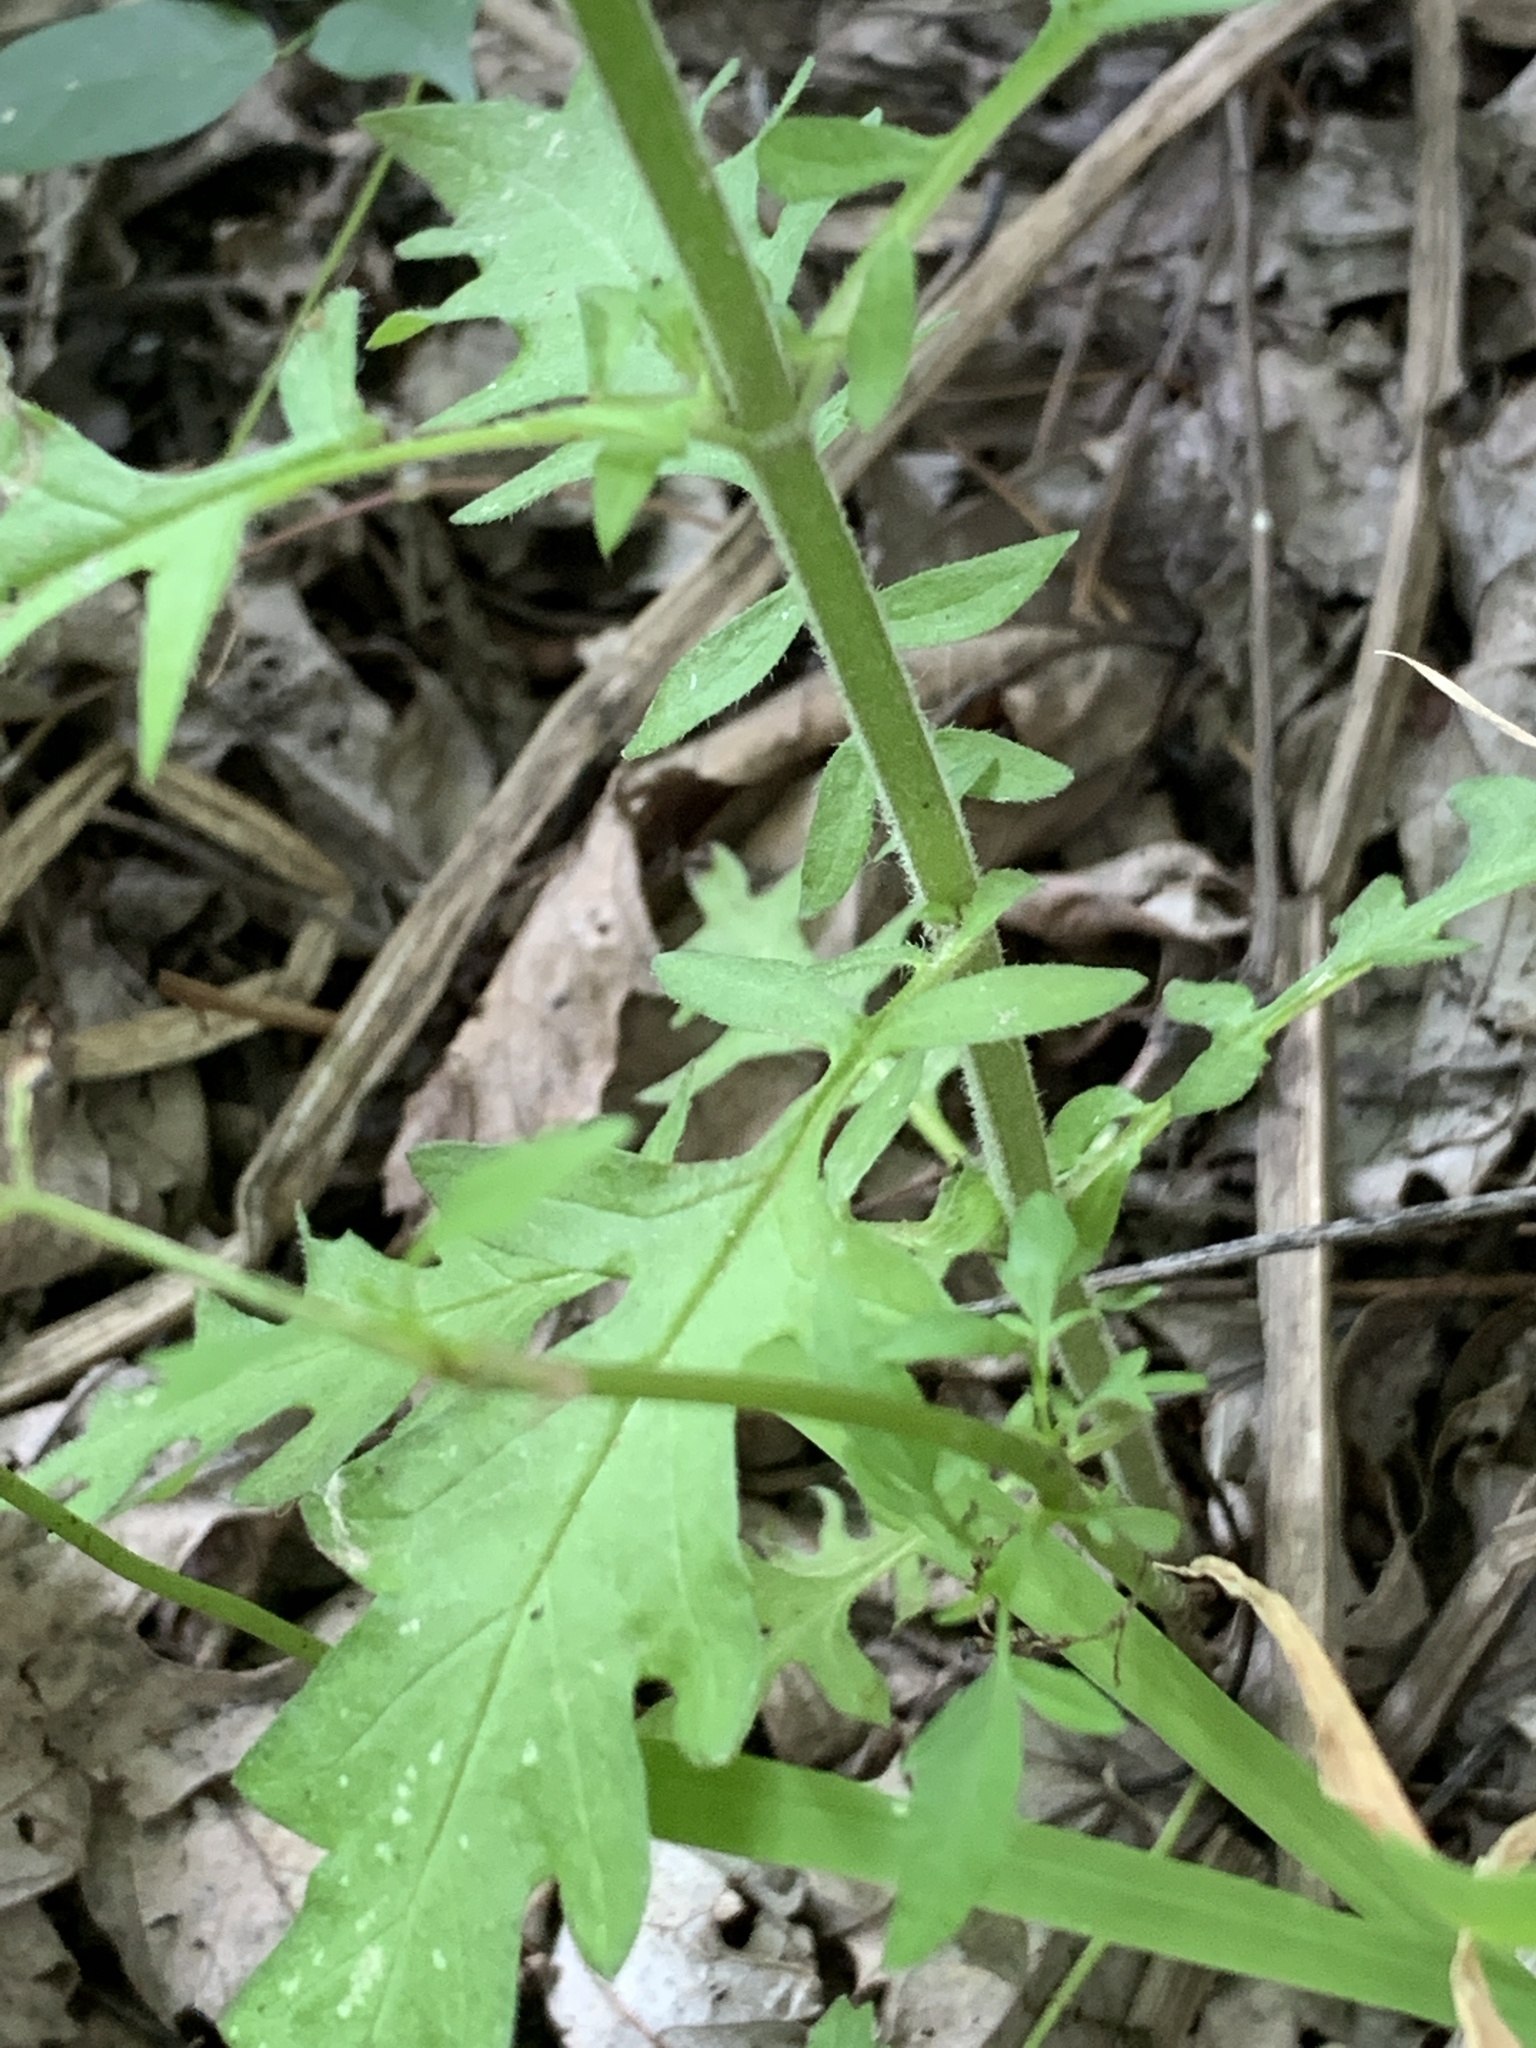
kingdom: Plantae
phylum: Tracheophyta
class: Magnoliopsida
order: Lamiales
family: Lamiaceae
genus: Lycopus
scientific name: Lycopus americanus
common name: American bugleweed
